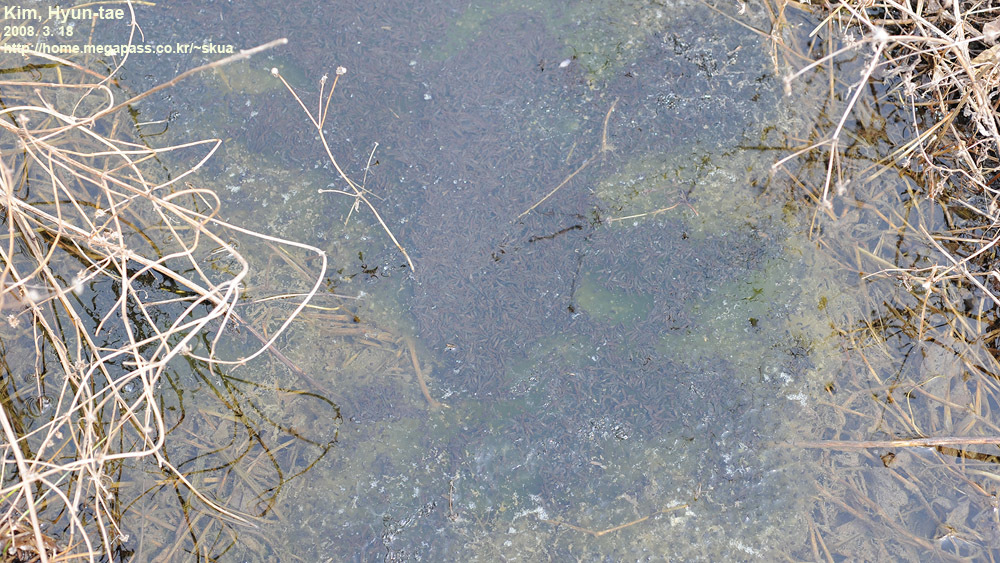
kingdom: Animalia
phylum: Chordata
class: Amphibia
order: Anura
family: Ranidae
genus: Rana
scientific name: Rana uenoi
